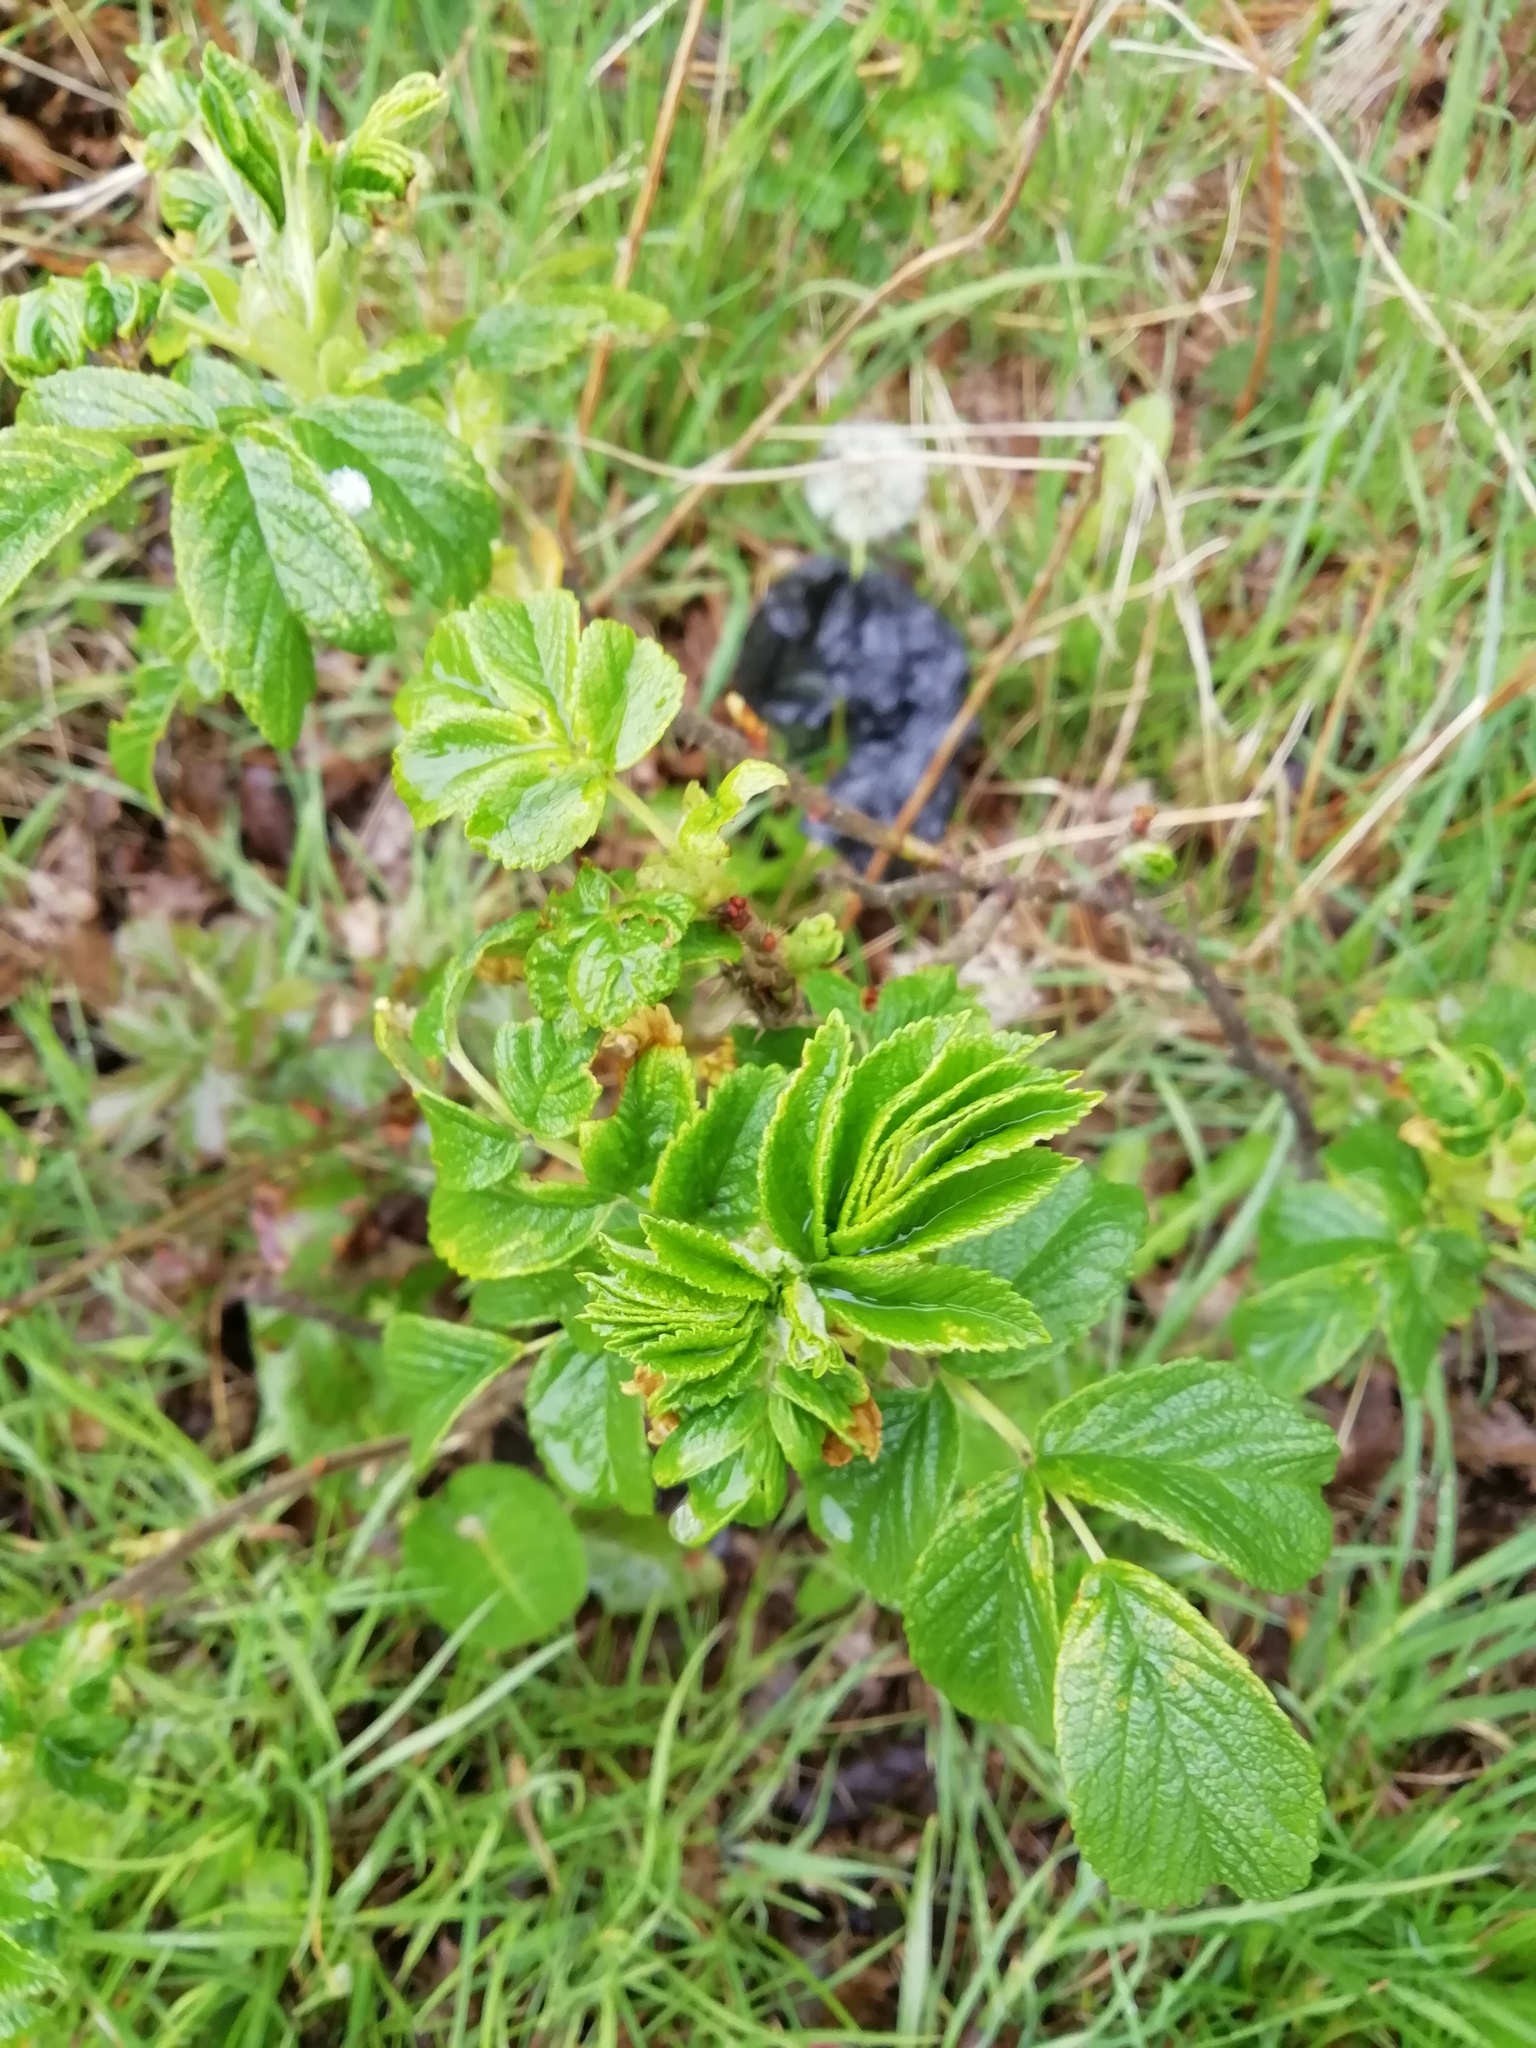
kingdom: Plantae
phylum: Tracheophyta
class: Magnoliopsida
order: Rosales
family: Rosaceae
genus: Rosa
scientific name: Rosa rugosa
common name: Japanese rose
